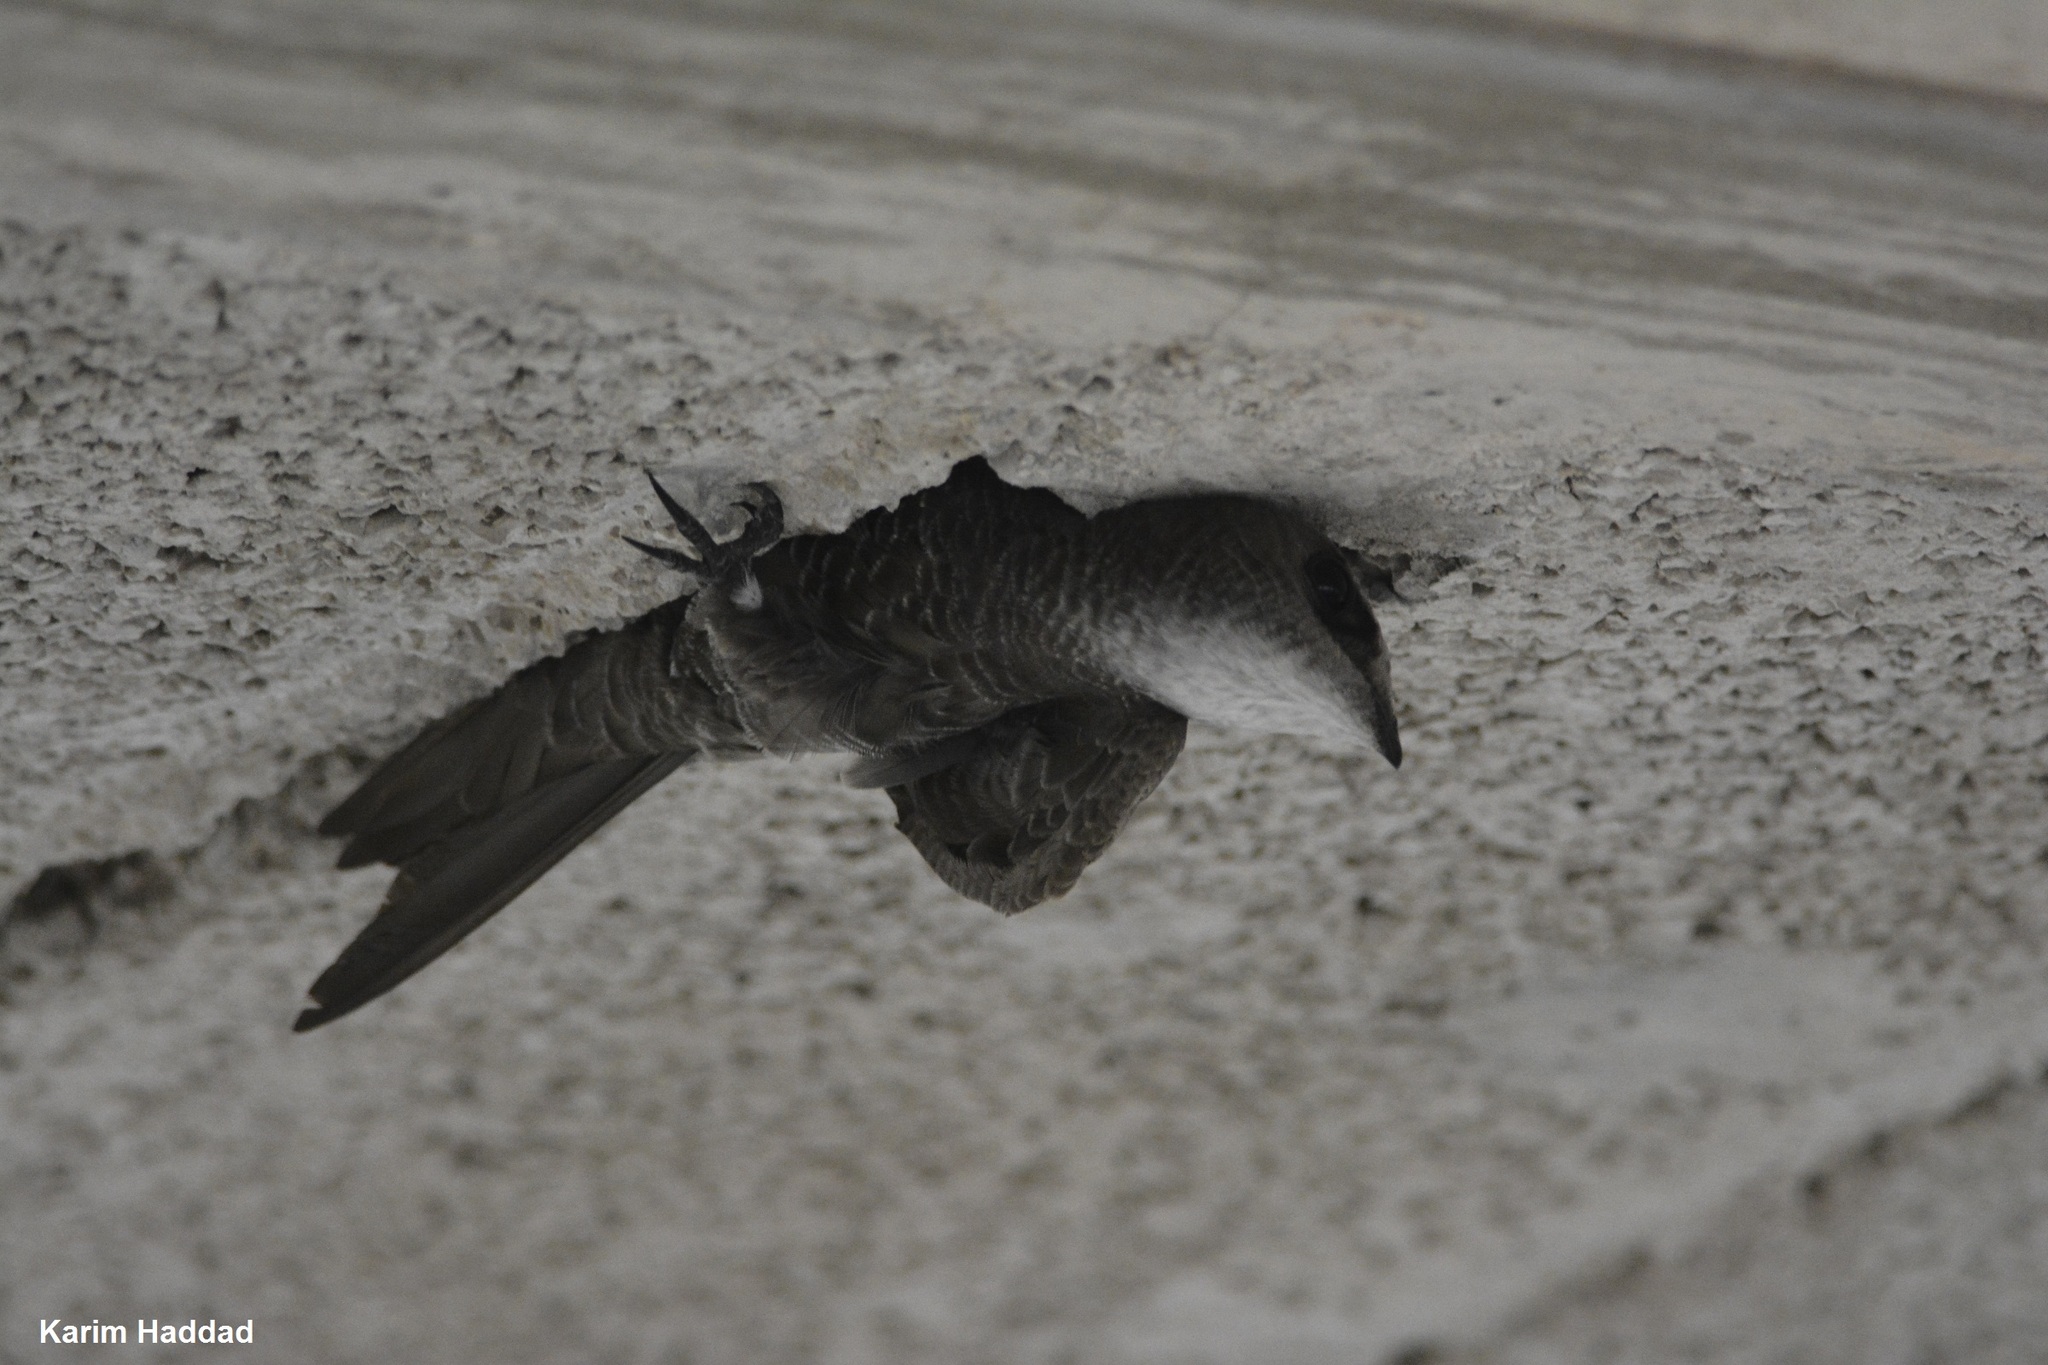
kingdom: Animalia
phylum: Chordata
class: Aves
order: Apodiformes
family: Apodidae
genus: Apus
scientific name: Apus pallidus
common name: Pallid swift
